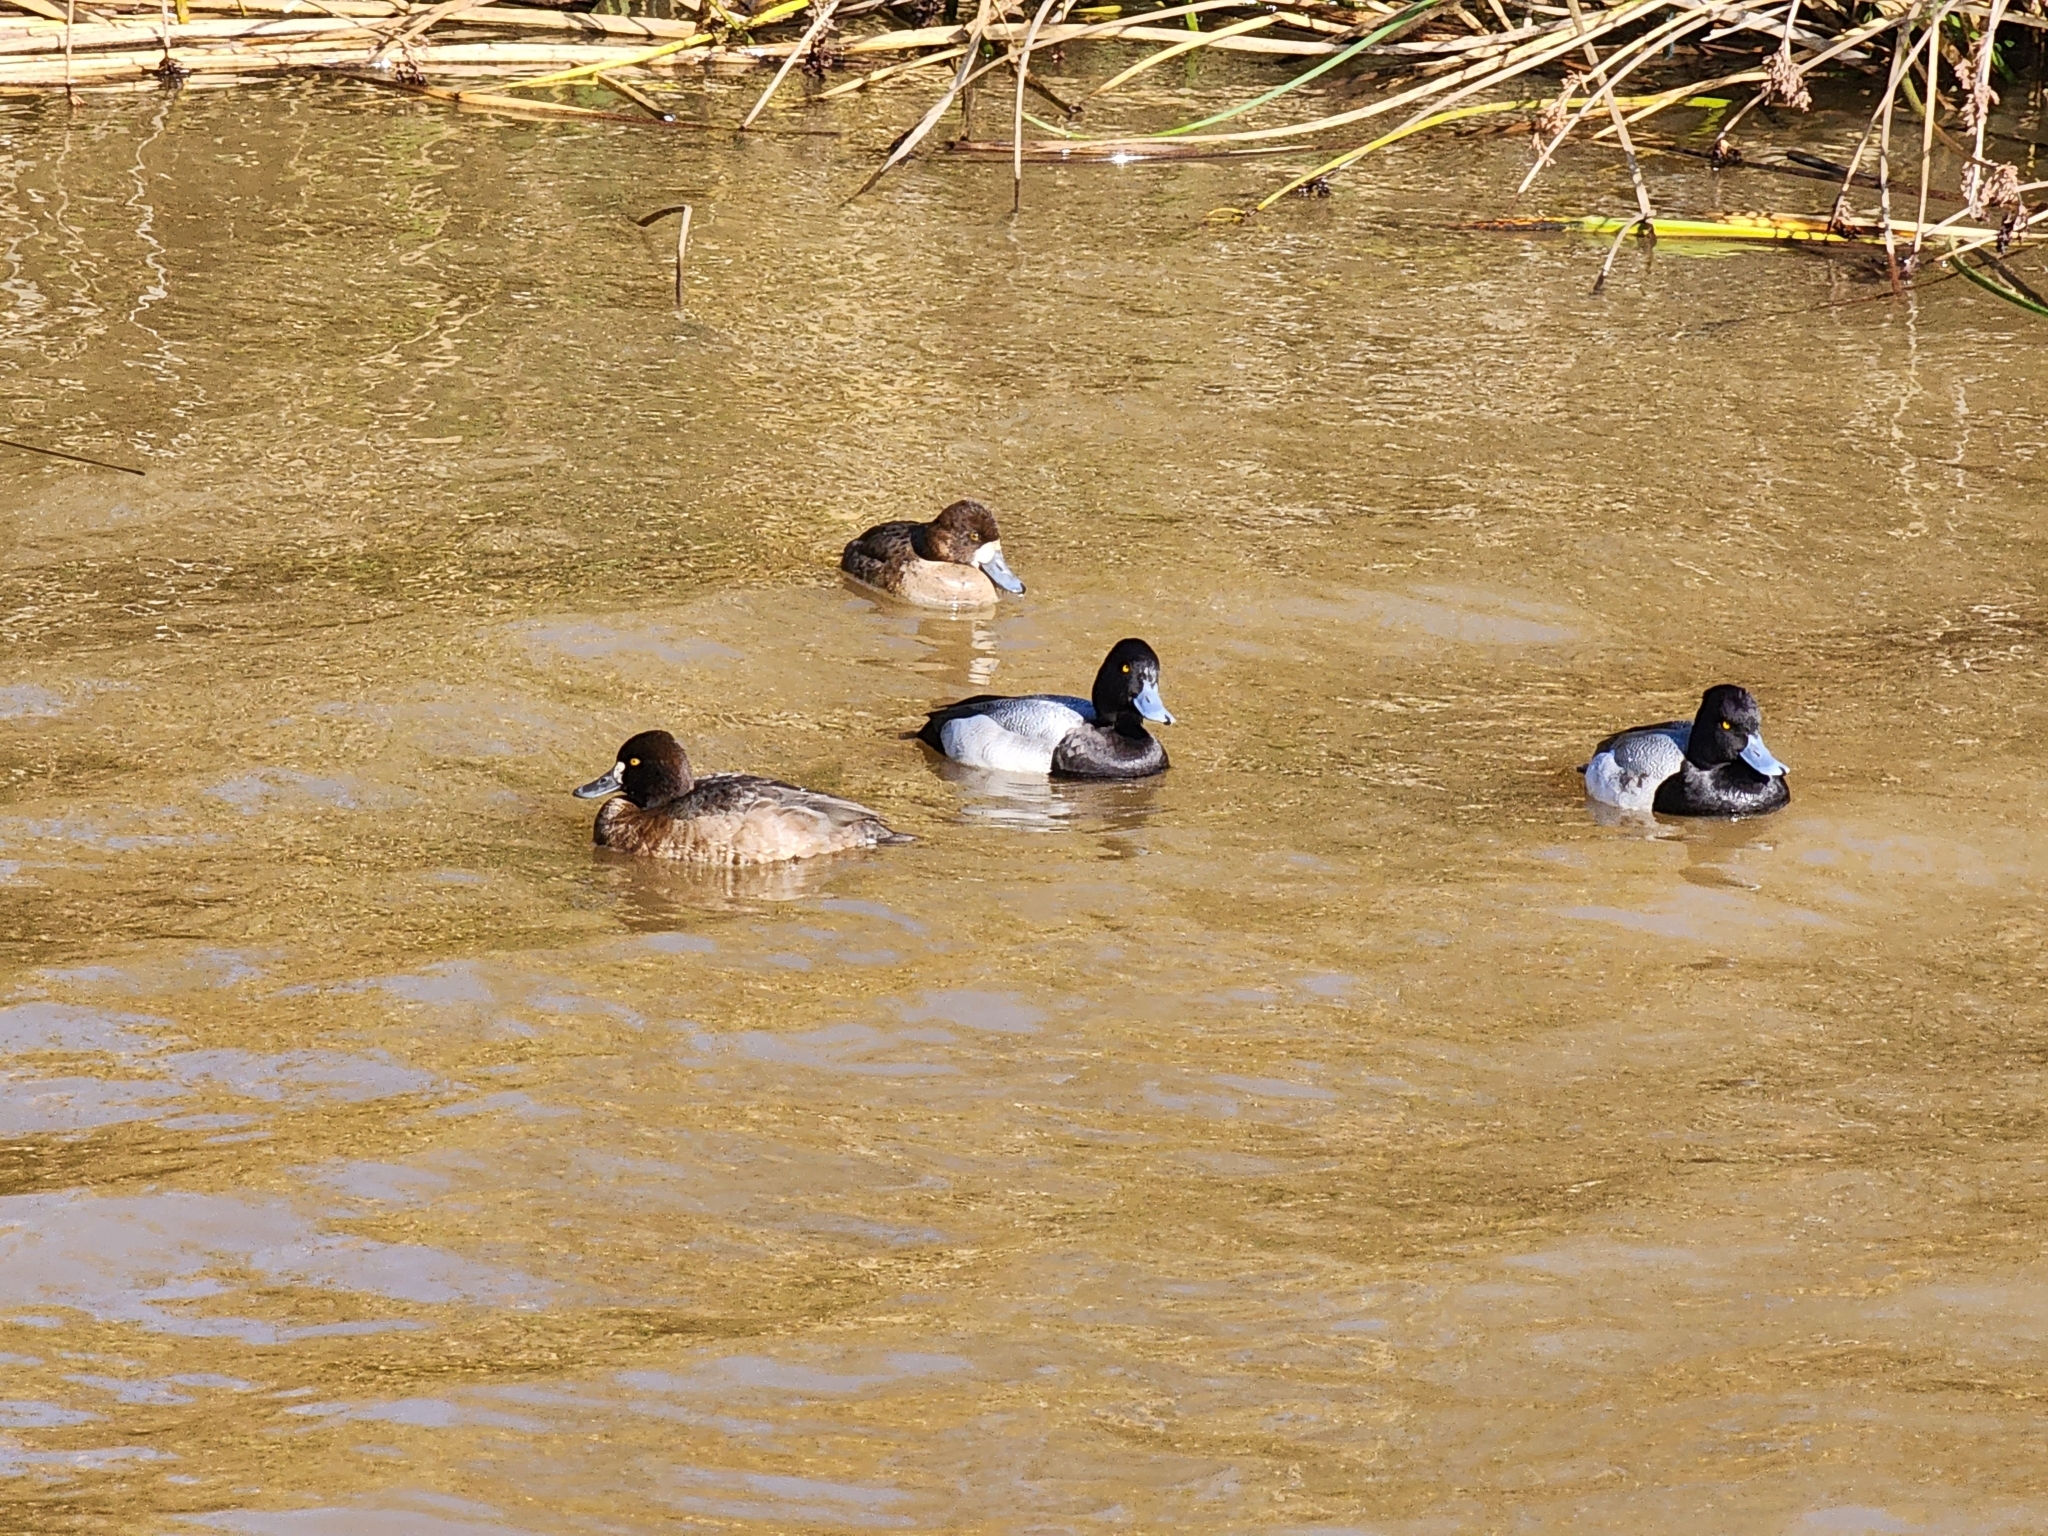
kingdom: Animalia
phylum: Chordata
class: Aves
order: Anseriformes
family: Anatidae
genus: Aythya
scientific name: Aythya affinis
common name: Lesser scaup
